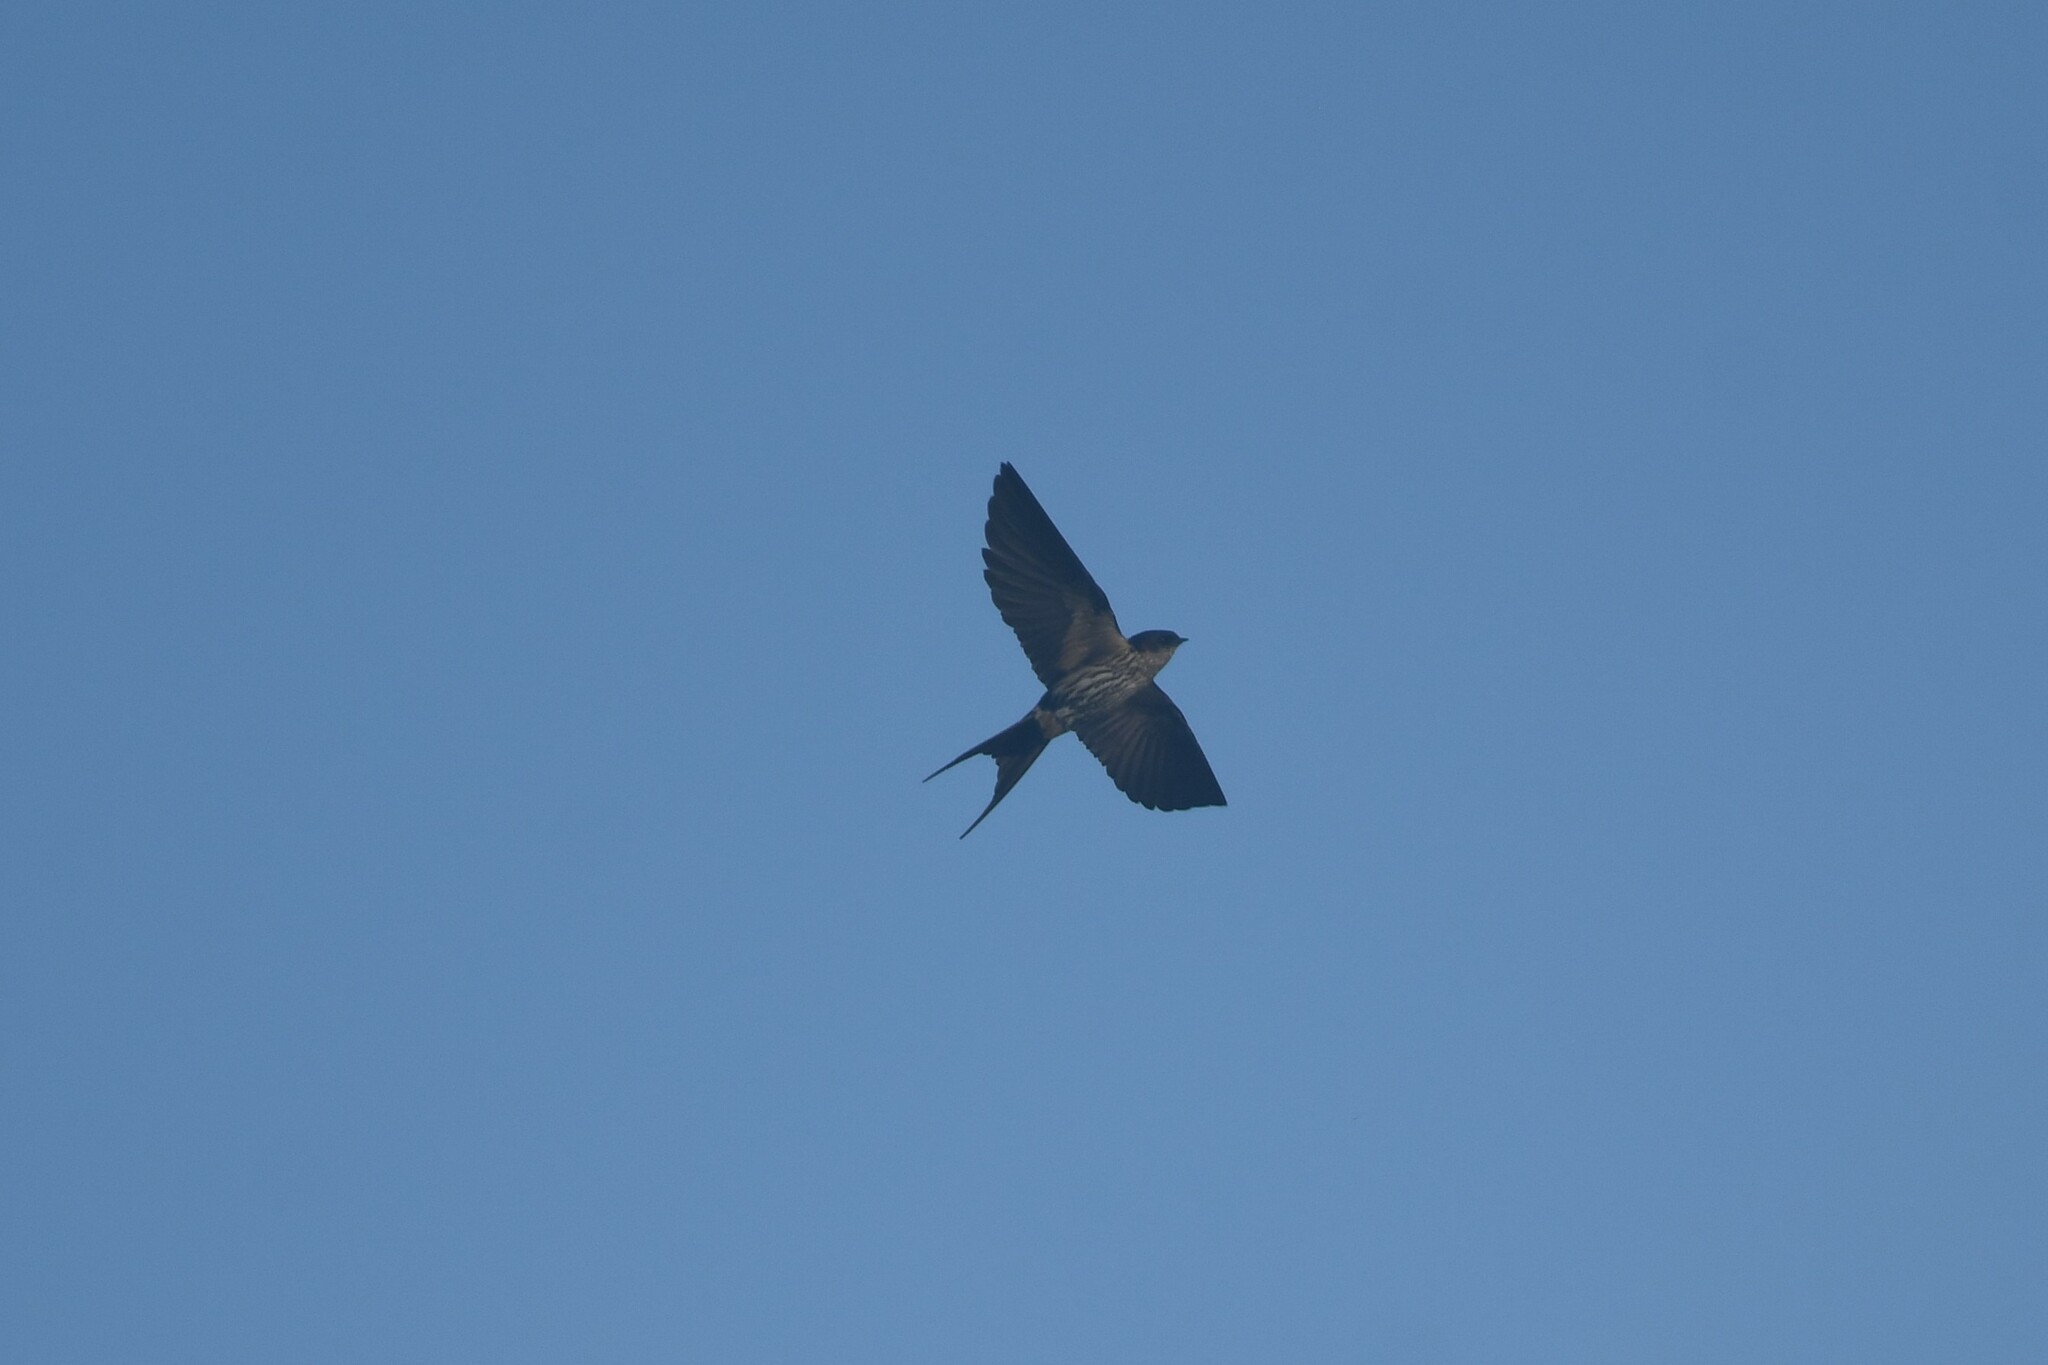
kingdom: Animalia
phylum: Chordata
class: Aves
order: Passeriformes
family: Hirundinidae
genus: Cecropis
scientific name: Cecropis striolata
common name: Striated swallow
